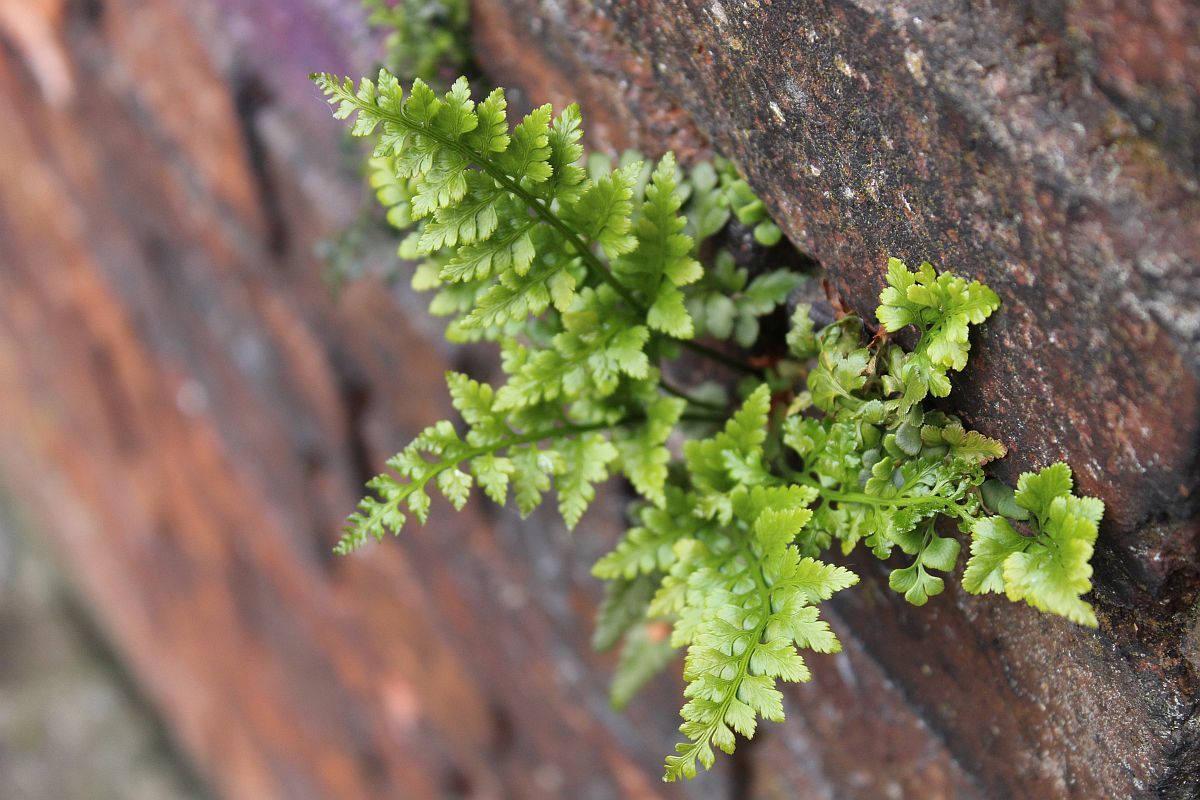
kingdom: Plantae
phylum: Tracheophyta
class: Polypodiopsida
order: Polypodiales
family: Aspleniaceae
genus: Asplenium
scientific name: Asplenium adiantum-nigrum
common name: Black spleenwort
